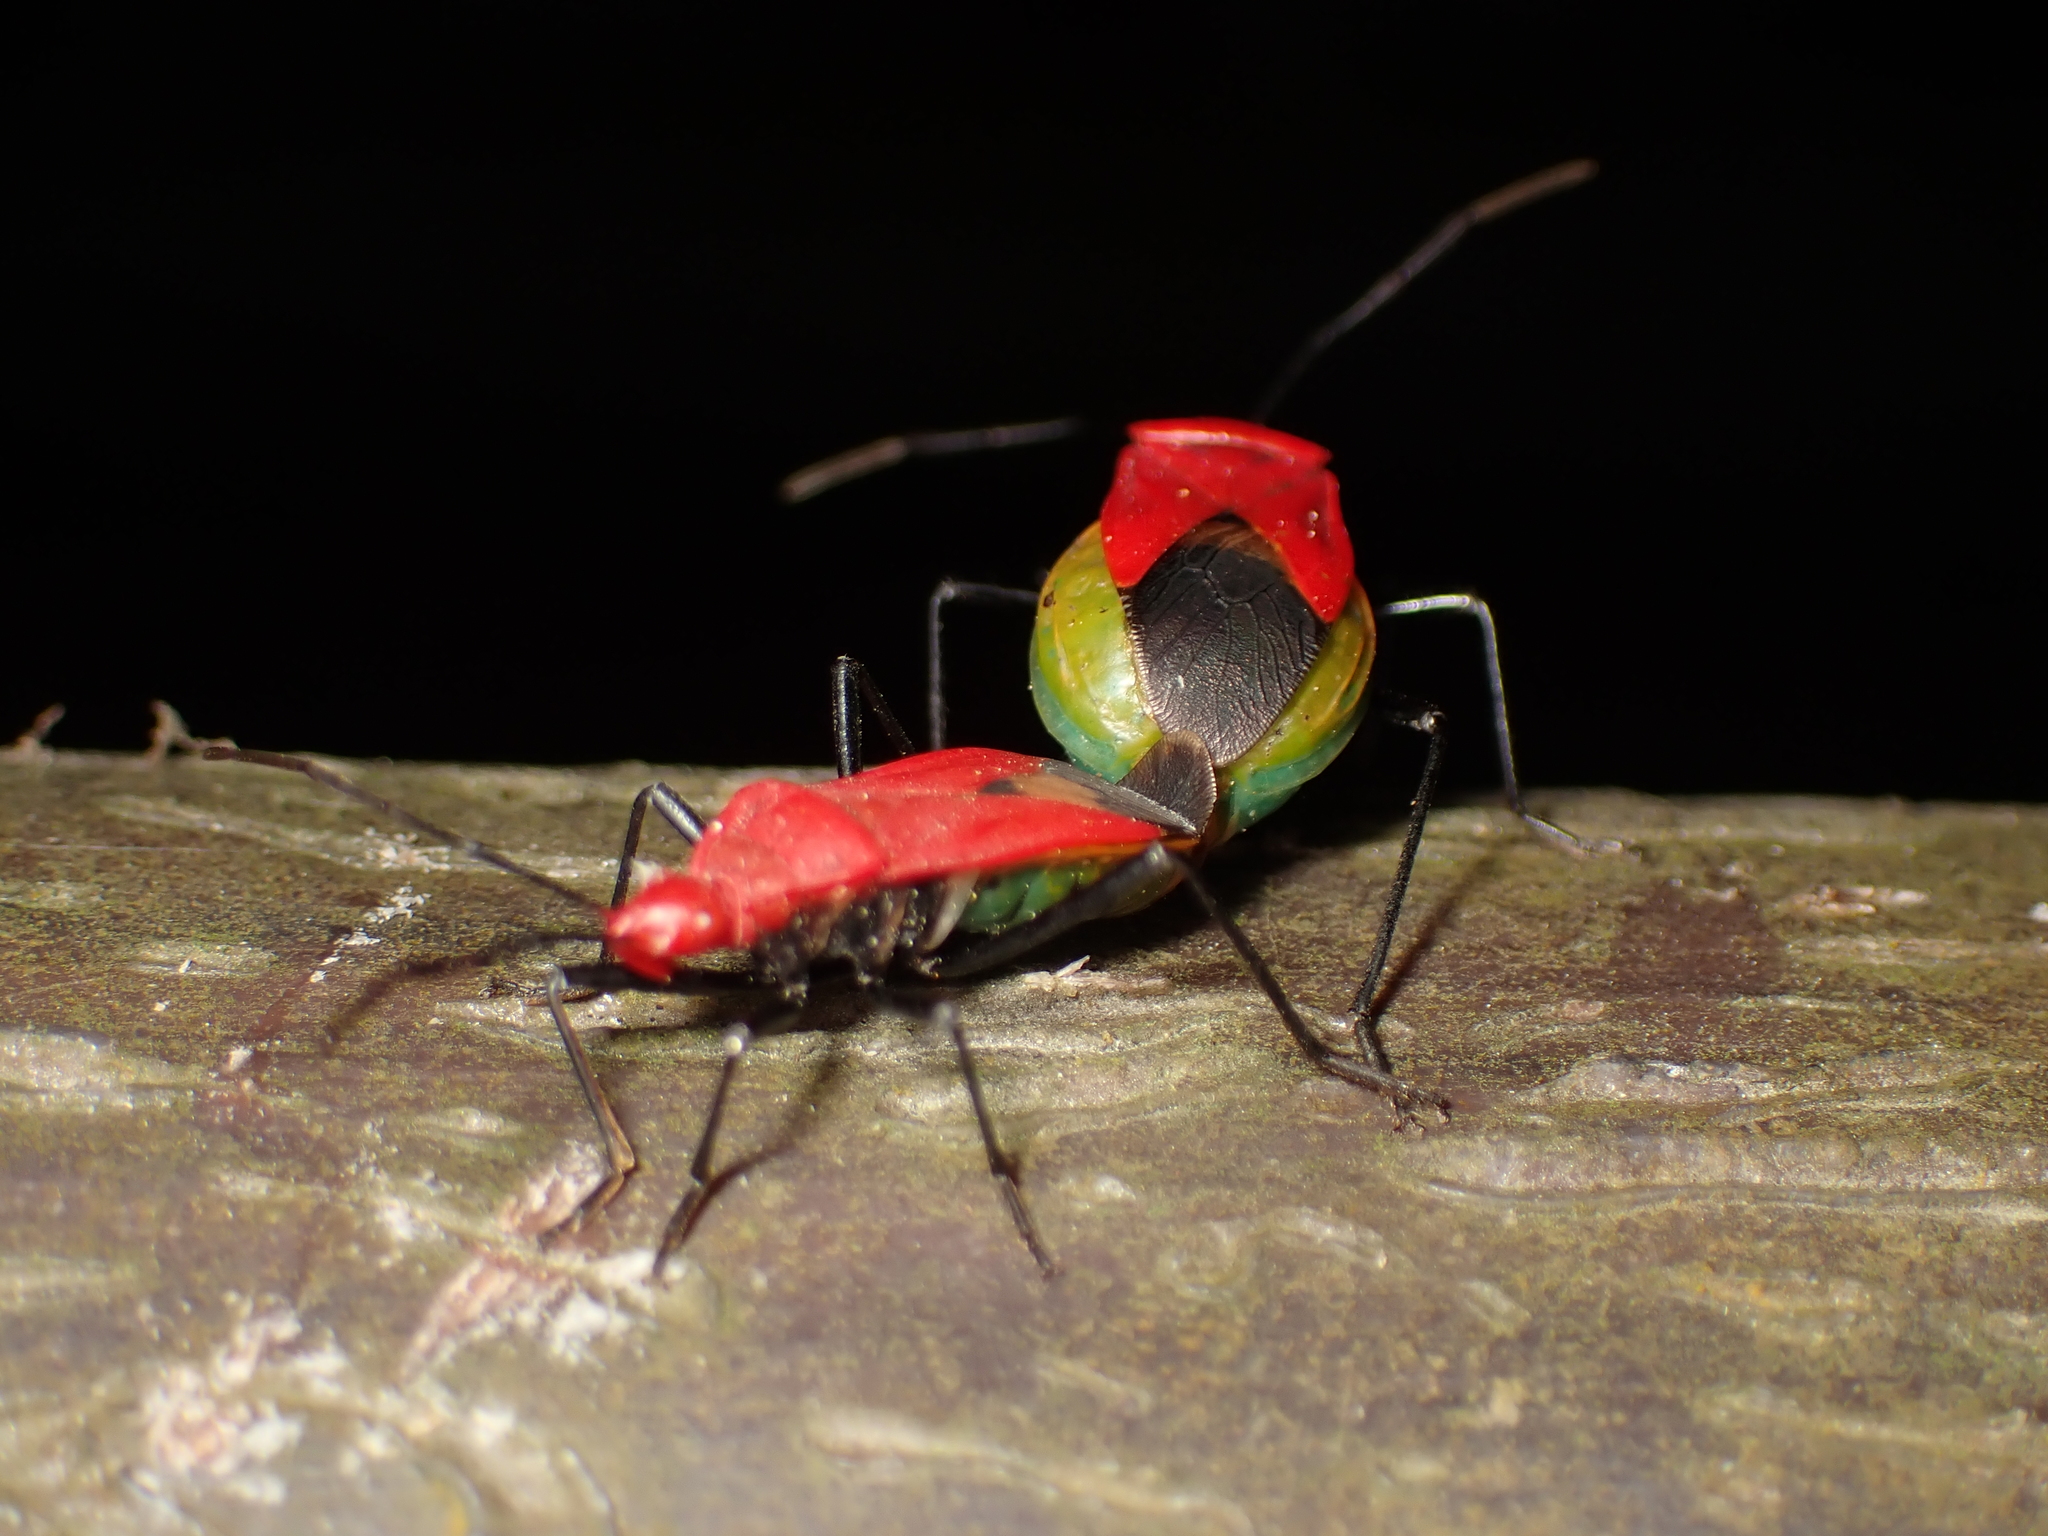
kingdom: Animalia
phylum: Arthropoda
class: Insecta
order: Hemiptera
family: Pyrrhocoridae
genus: Dindymus
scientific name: Dindymus
